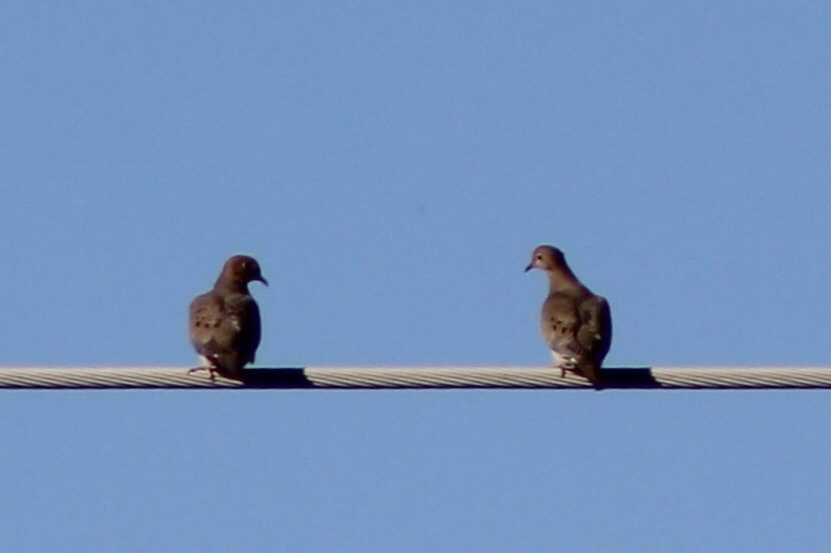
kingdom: Animalia
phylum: Chordata
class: Aves
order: Columbiformes
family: Columbidae
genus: Zenaida
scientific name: Zenaida macroura
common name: Mourning dove
